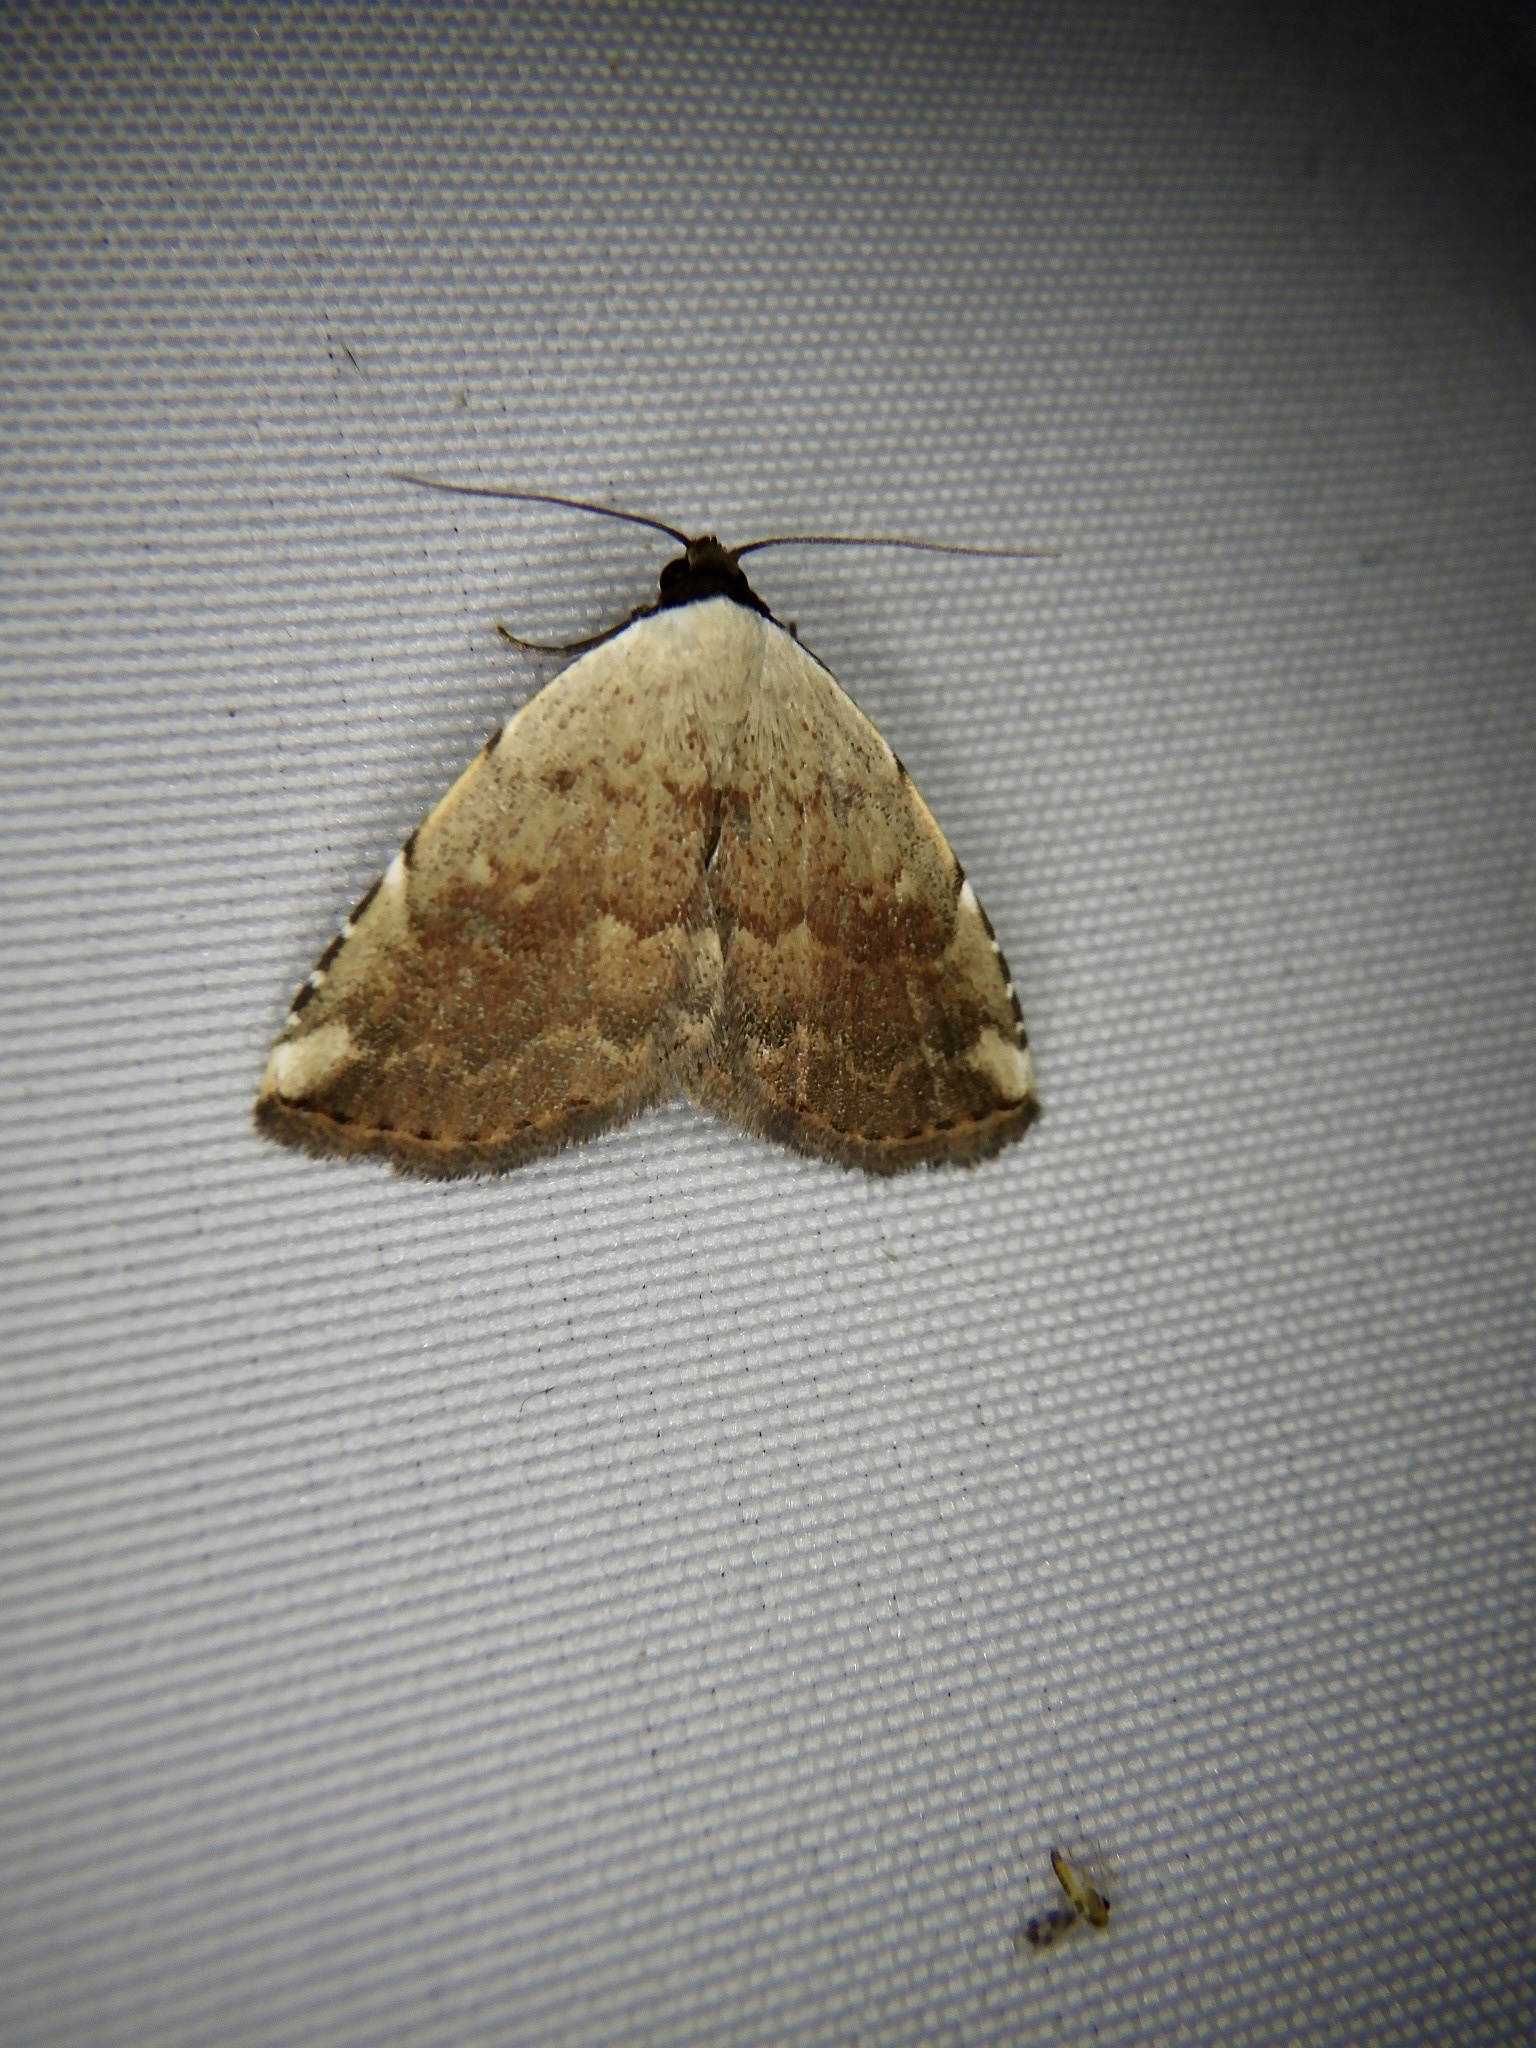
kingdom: Animalia
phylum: Arthropoda
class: Insecta
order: Lepidoptera
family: Noctuidae
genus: Autoba
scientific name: Autoba tristalis
